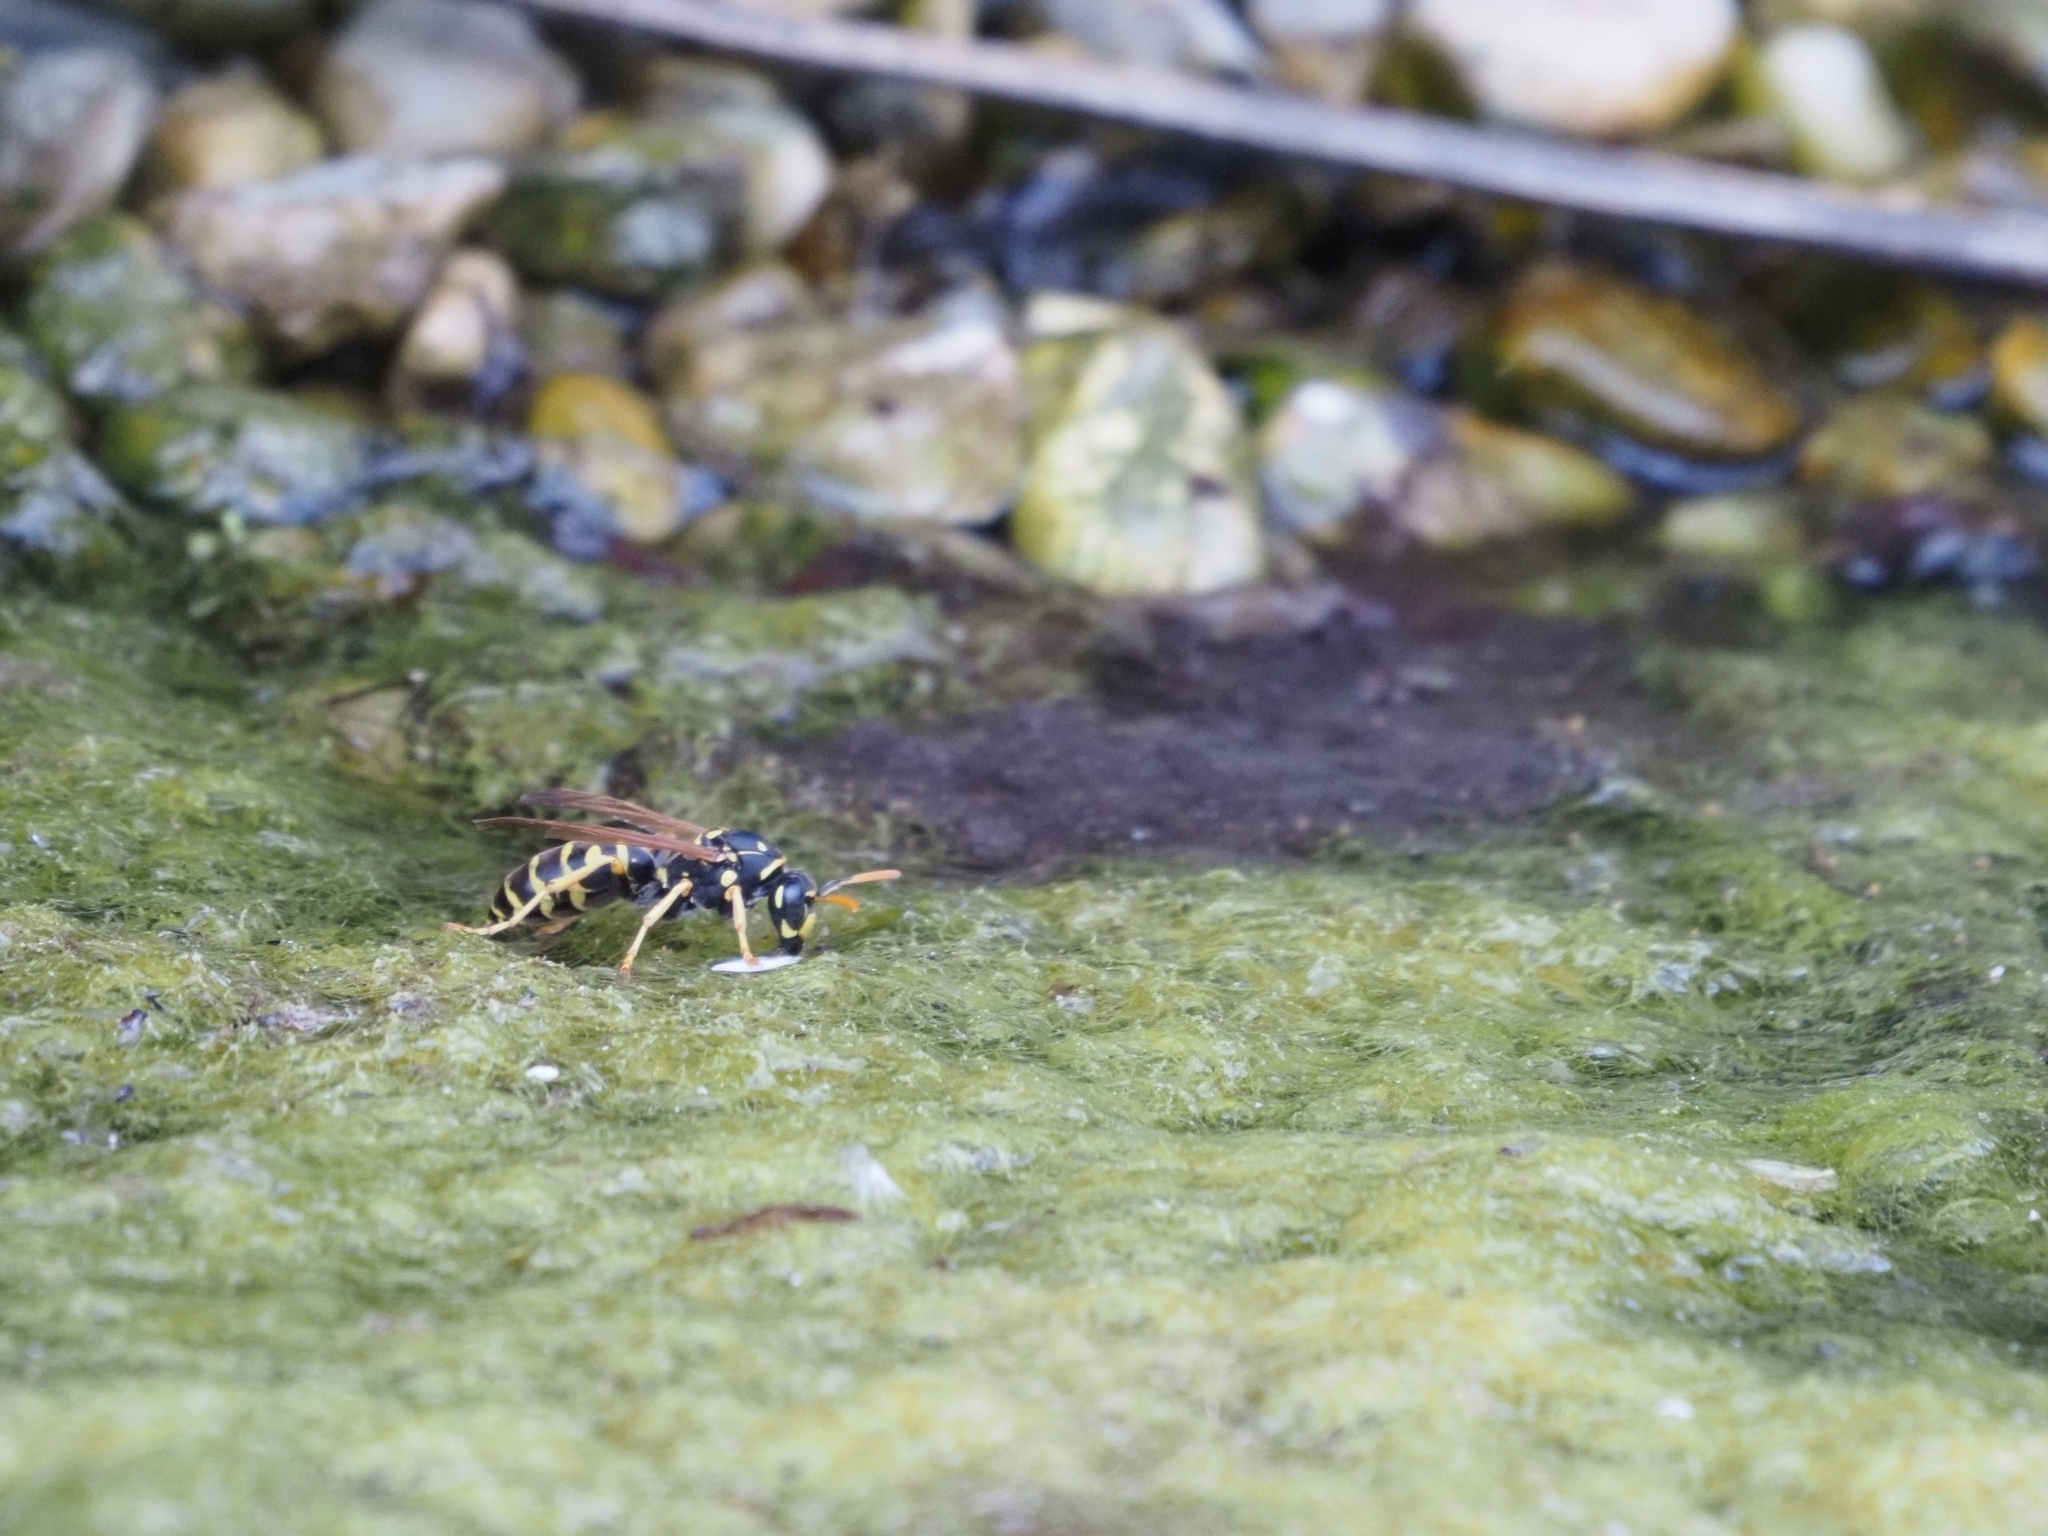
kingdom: Animalia
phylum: Arthropoda
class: Insecta
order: Hymenoptera
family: Eumenidae
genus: Polistes
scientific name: Polistes dominula
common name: Paper wasp
